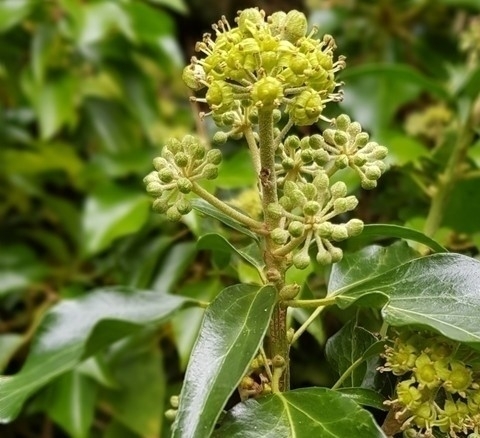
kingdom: Plantae
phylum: Tracheophyta
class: Magnoliopsida
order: Apiales
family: Araliaceae
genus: Hedera
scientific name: Hedera helix
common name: Ivy
